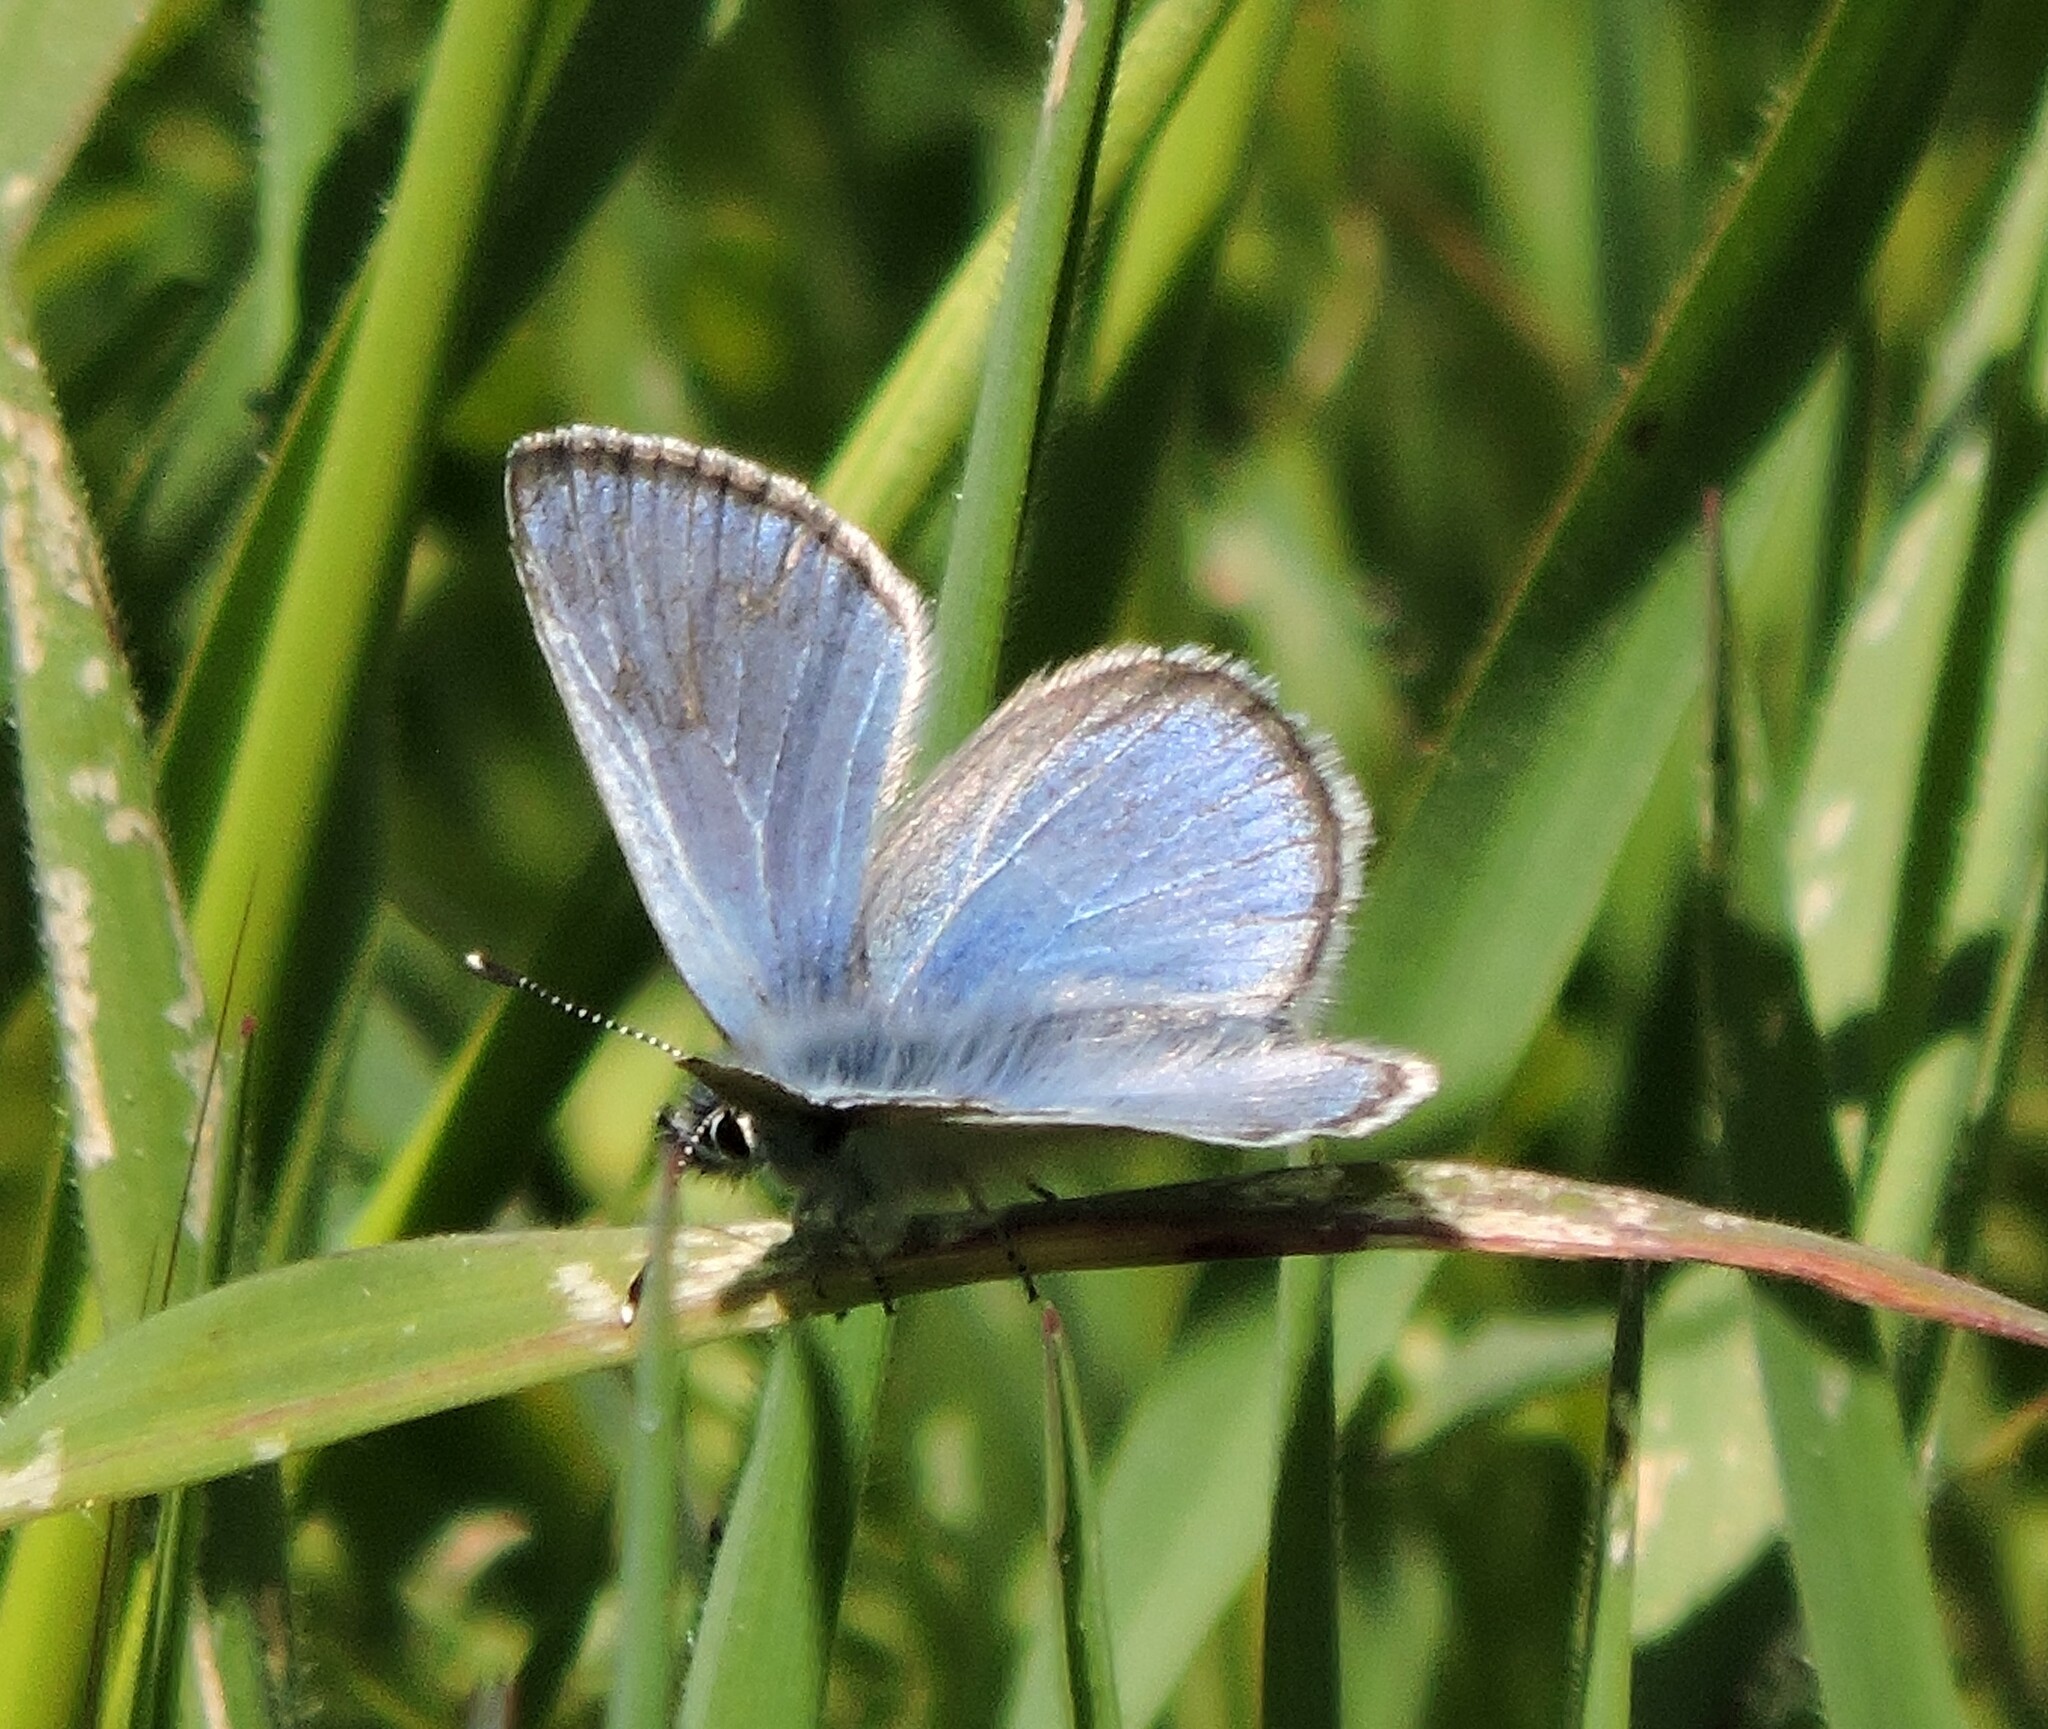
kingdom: Animalia
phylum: Arthropoda
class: Insecta
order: Lepidoptera
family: Lycaenidae
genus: Glaucopsyche
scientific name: Glaucopsyche lygdamus
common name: Silvery blue
